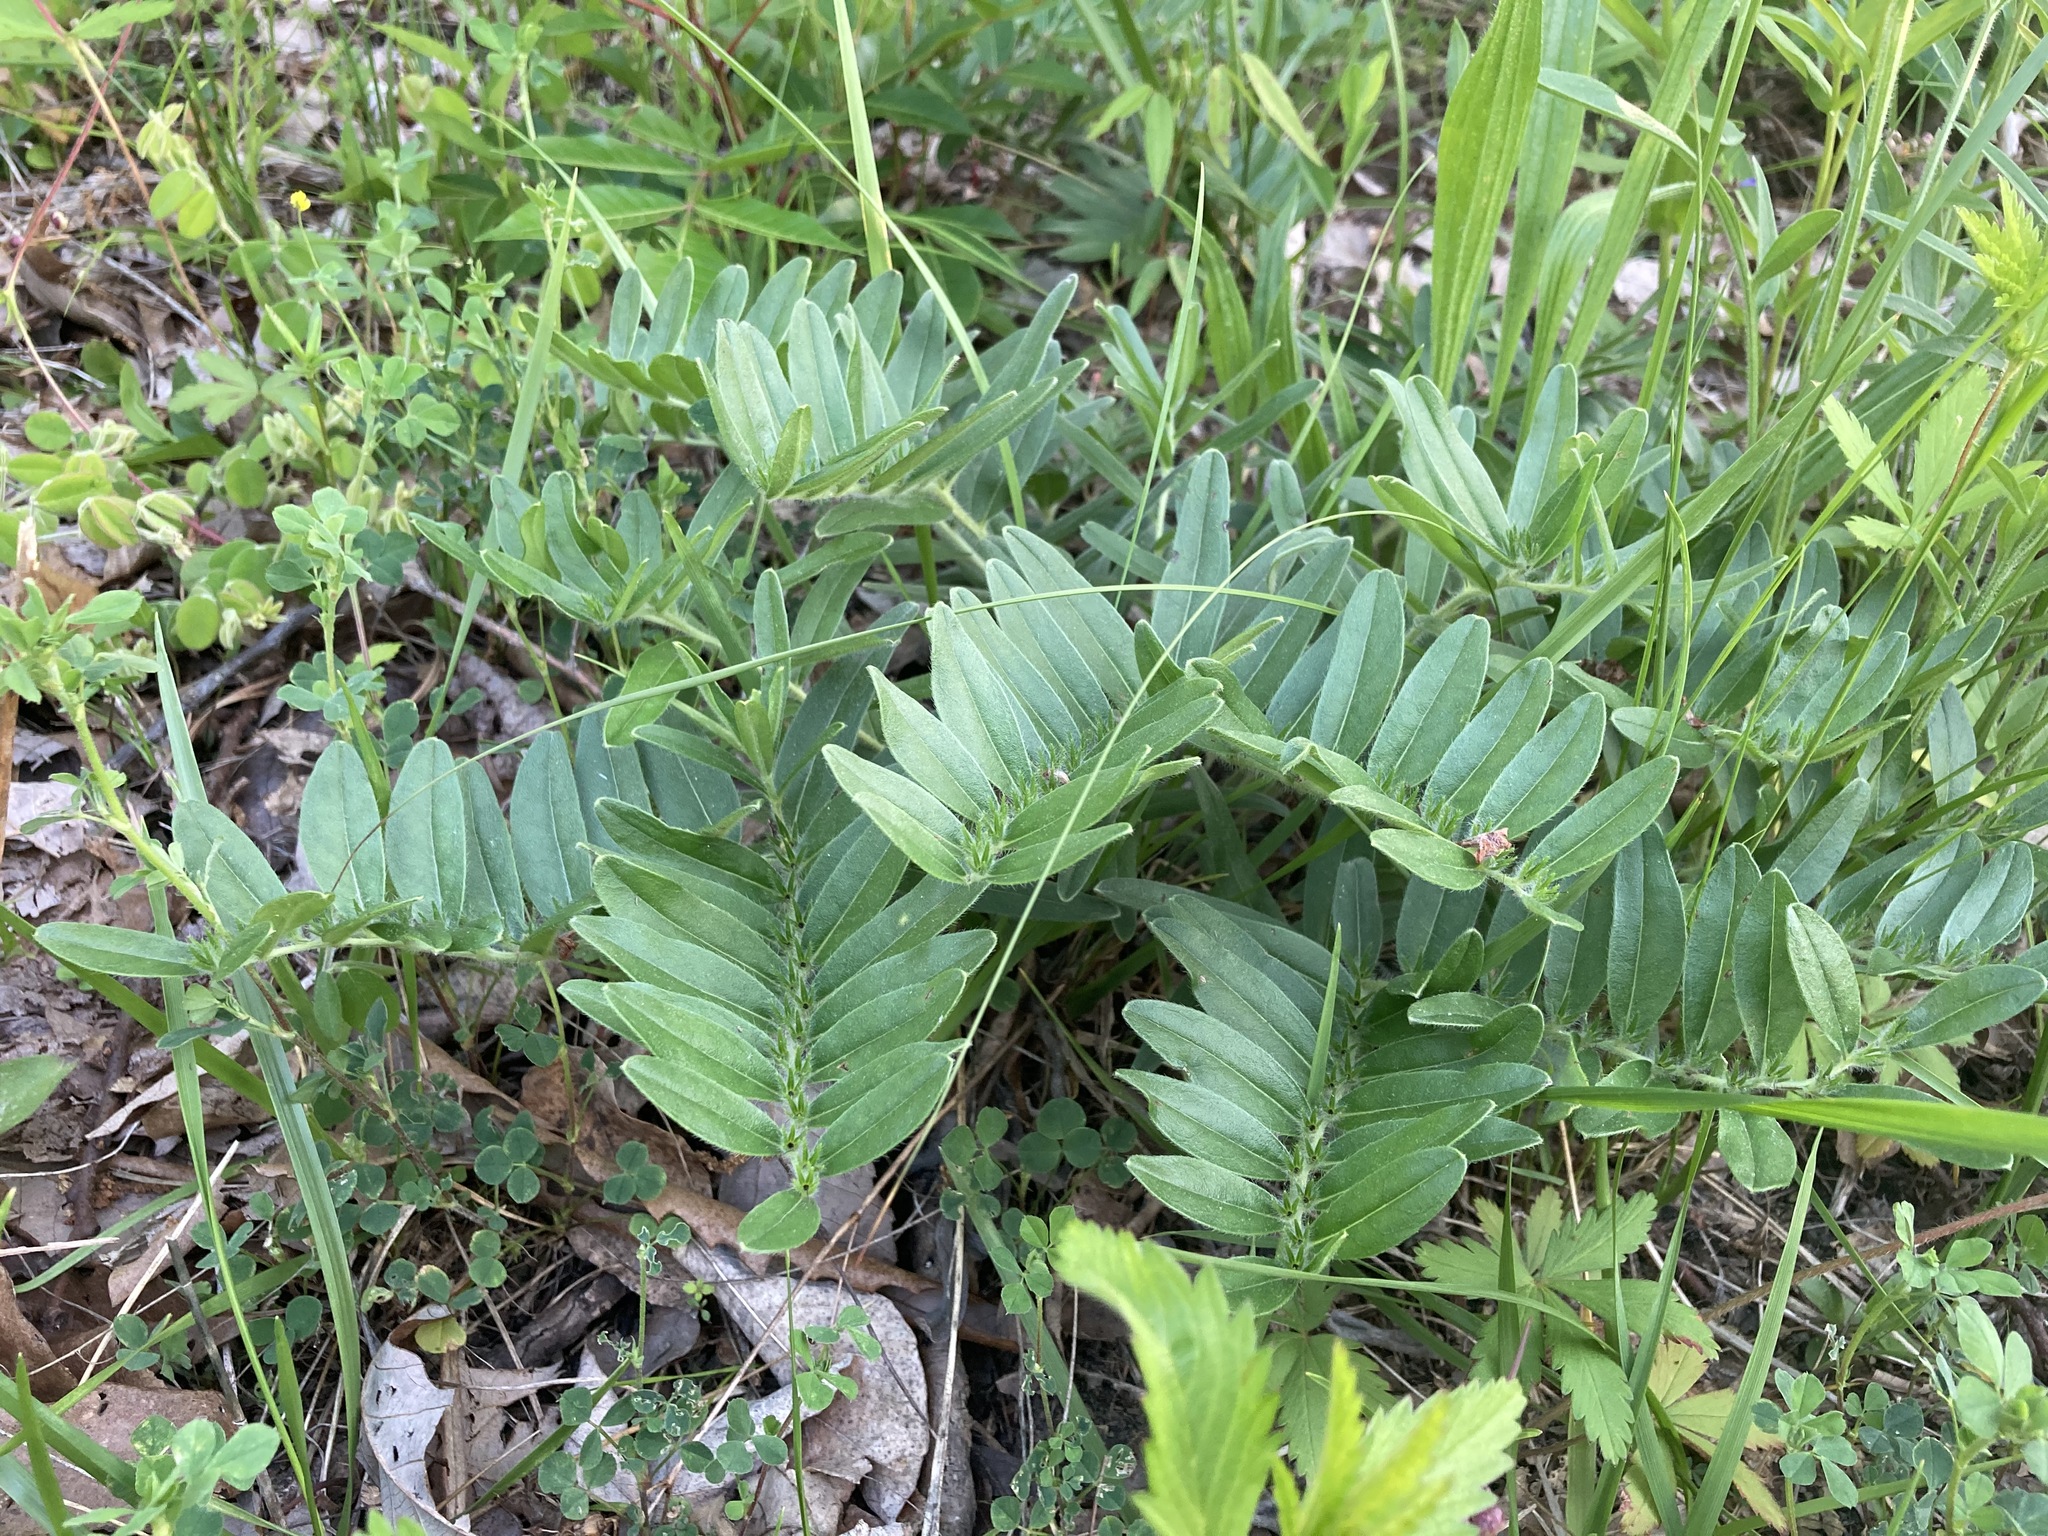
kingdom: Plantae
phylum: Tracheophyta
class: Magnoliopsida
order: Boraginales
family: Boraginaceae
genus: Lithospermum
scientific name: Lithospermum canescens
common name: Hoary puccoon
